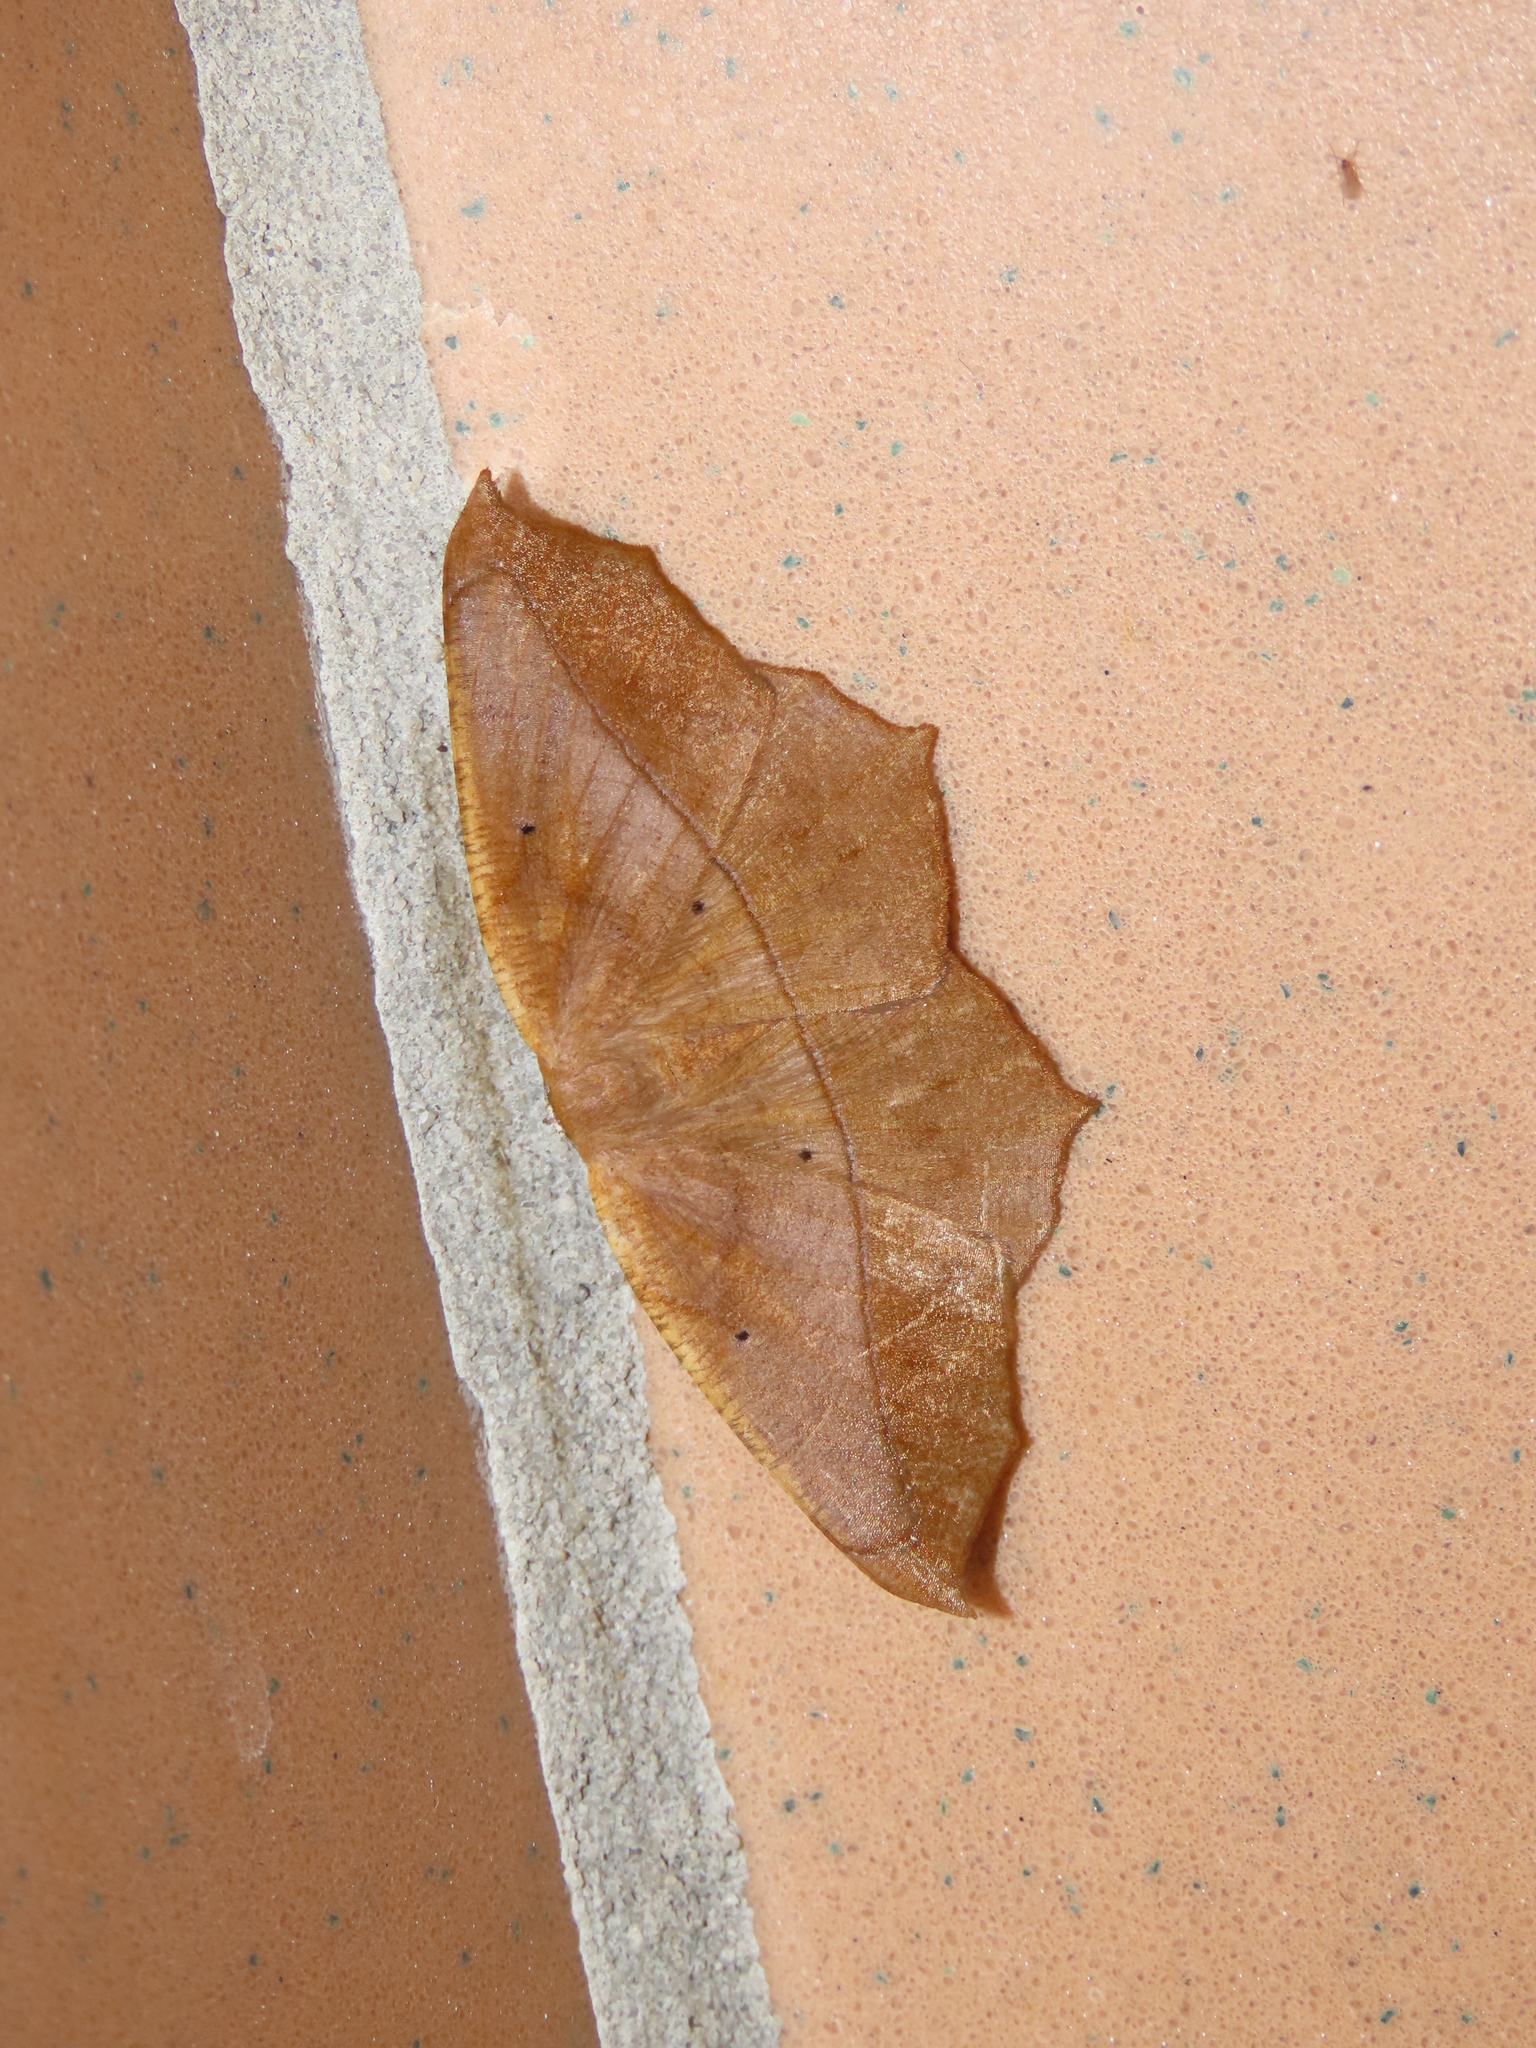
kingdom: Animalia
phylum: Arthropoda
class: Insecta
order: Lepidoptera
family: Geometridae
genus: Prochoerodes
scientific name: Prochoerodes lineola
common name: Large maple spanworm
